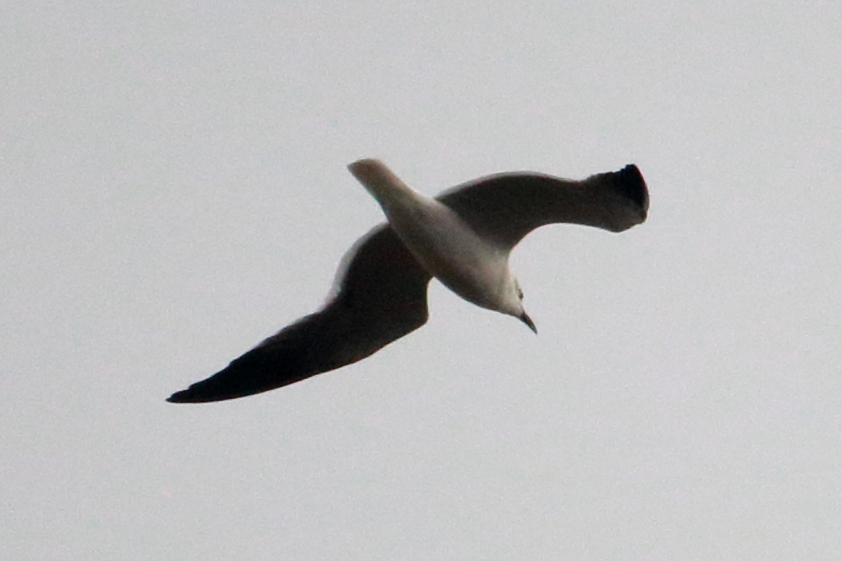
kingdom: Animalia
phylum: Chordata
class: Aves
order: Charadriiformes
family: Laridae
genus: Leucophaeus
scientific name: Leucophaeus atricilla
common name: Laughing gull
